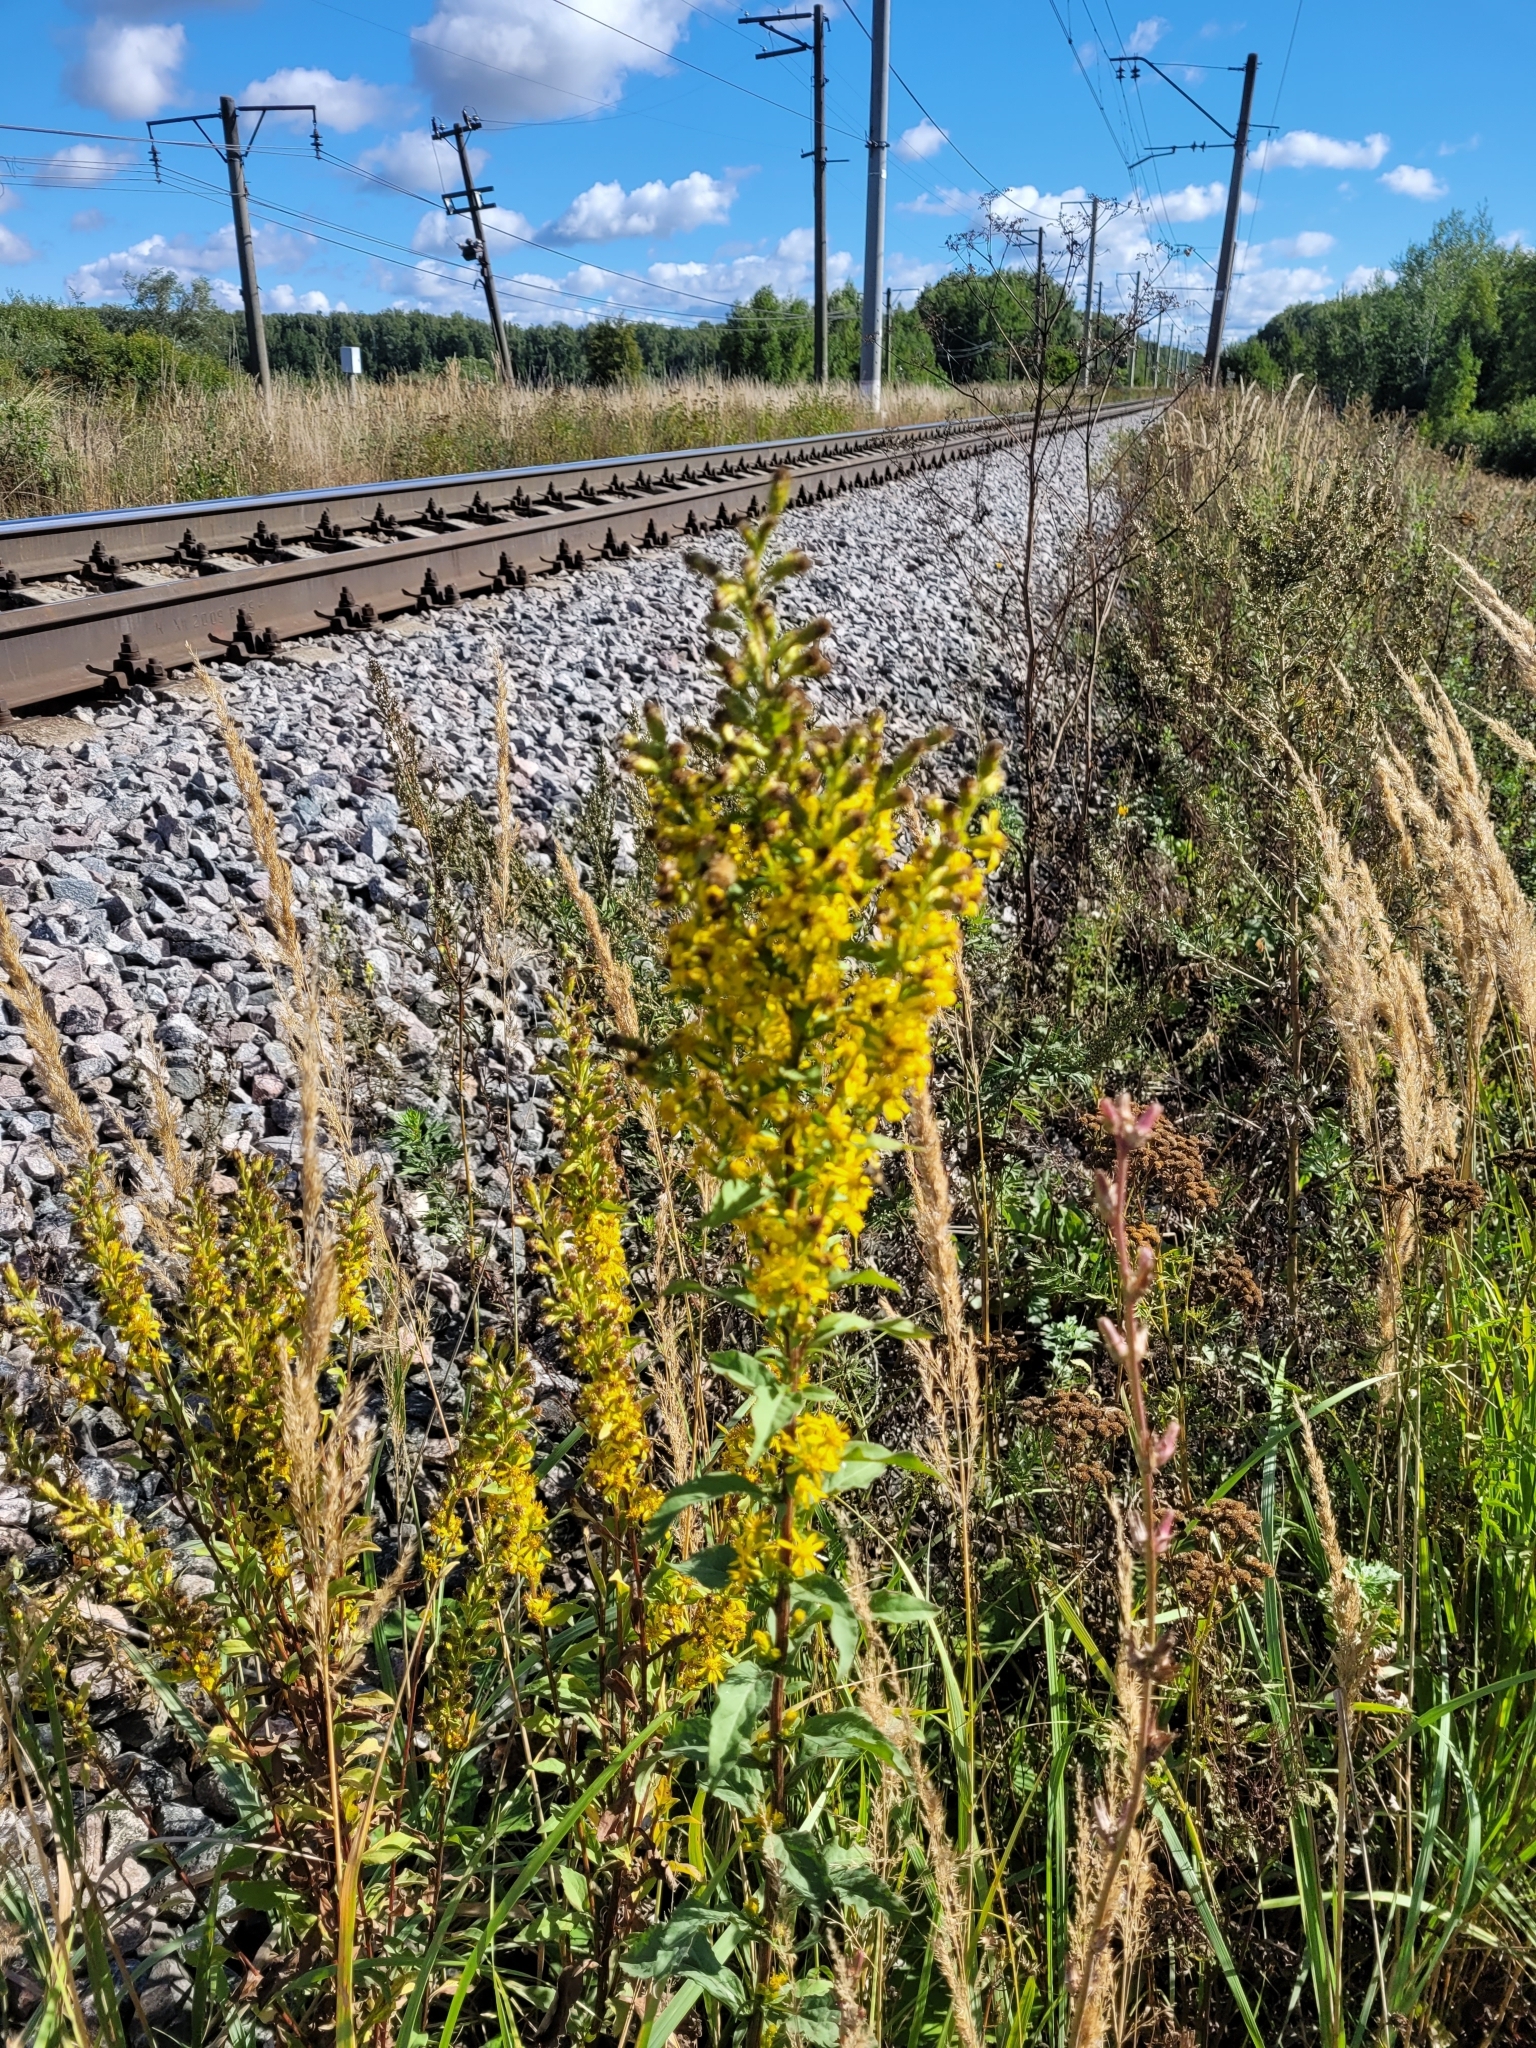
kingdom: Plantae
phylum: Tracheophyta
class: Magnoliopsida
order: Asterales
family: Asteraceae
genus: Solidago
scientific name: Solidago niederederi
